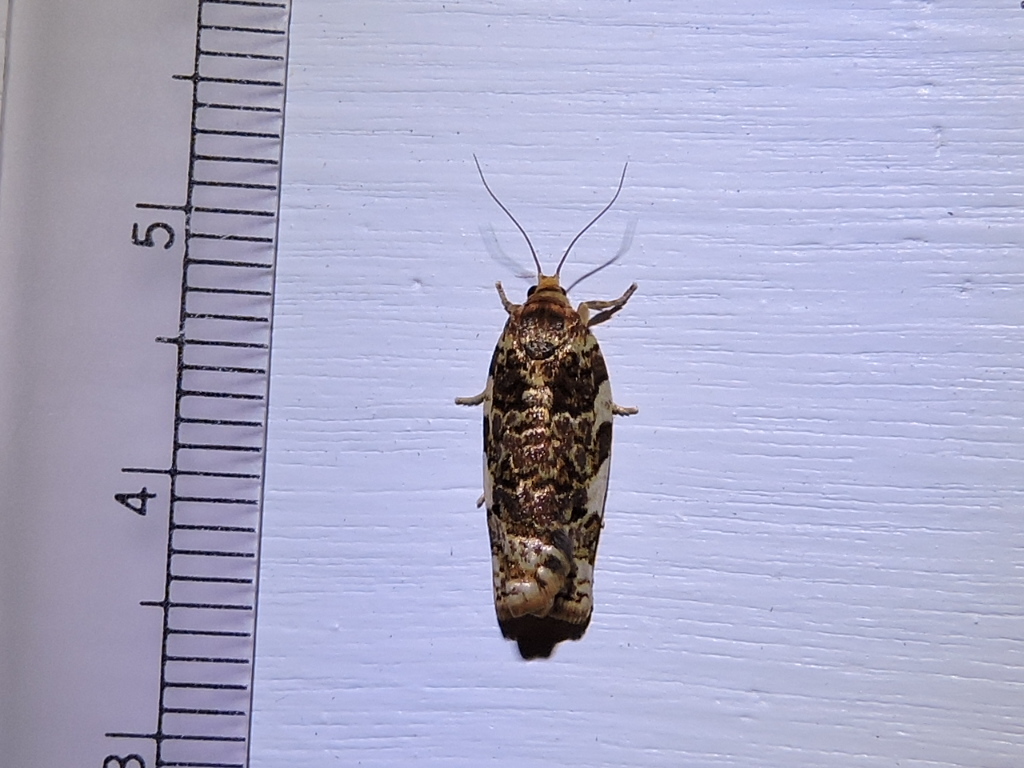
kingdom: Animalia
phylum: Arthropoda
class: Insecta
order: Lepidoptera
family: Tortricidae
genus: Archips
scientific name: Archips argyrospila
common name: Fruit-tree leafroller moth
